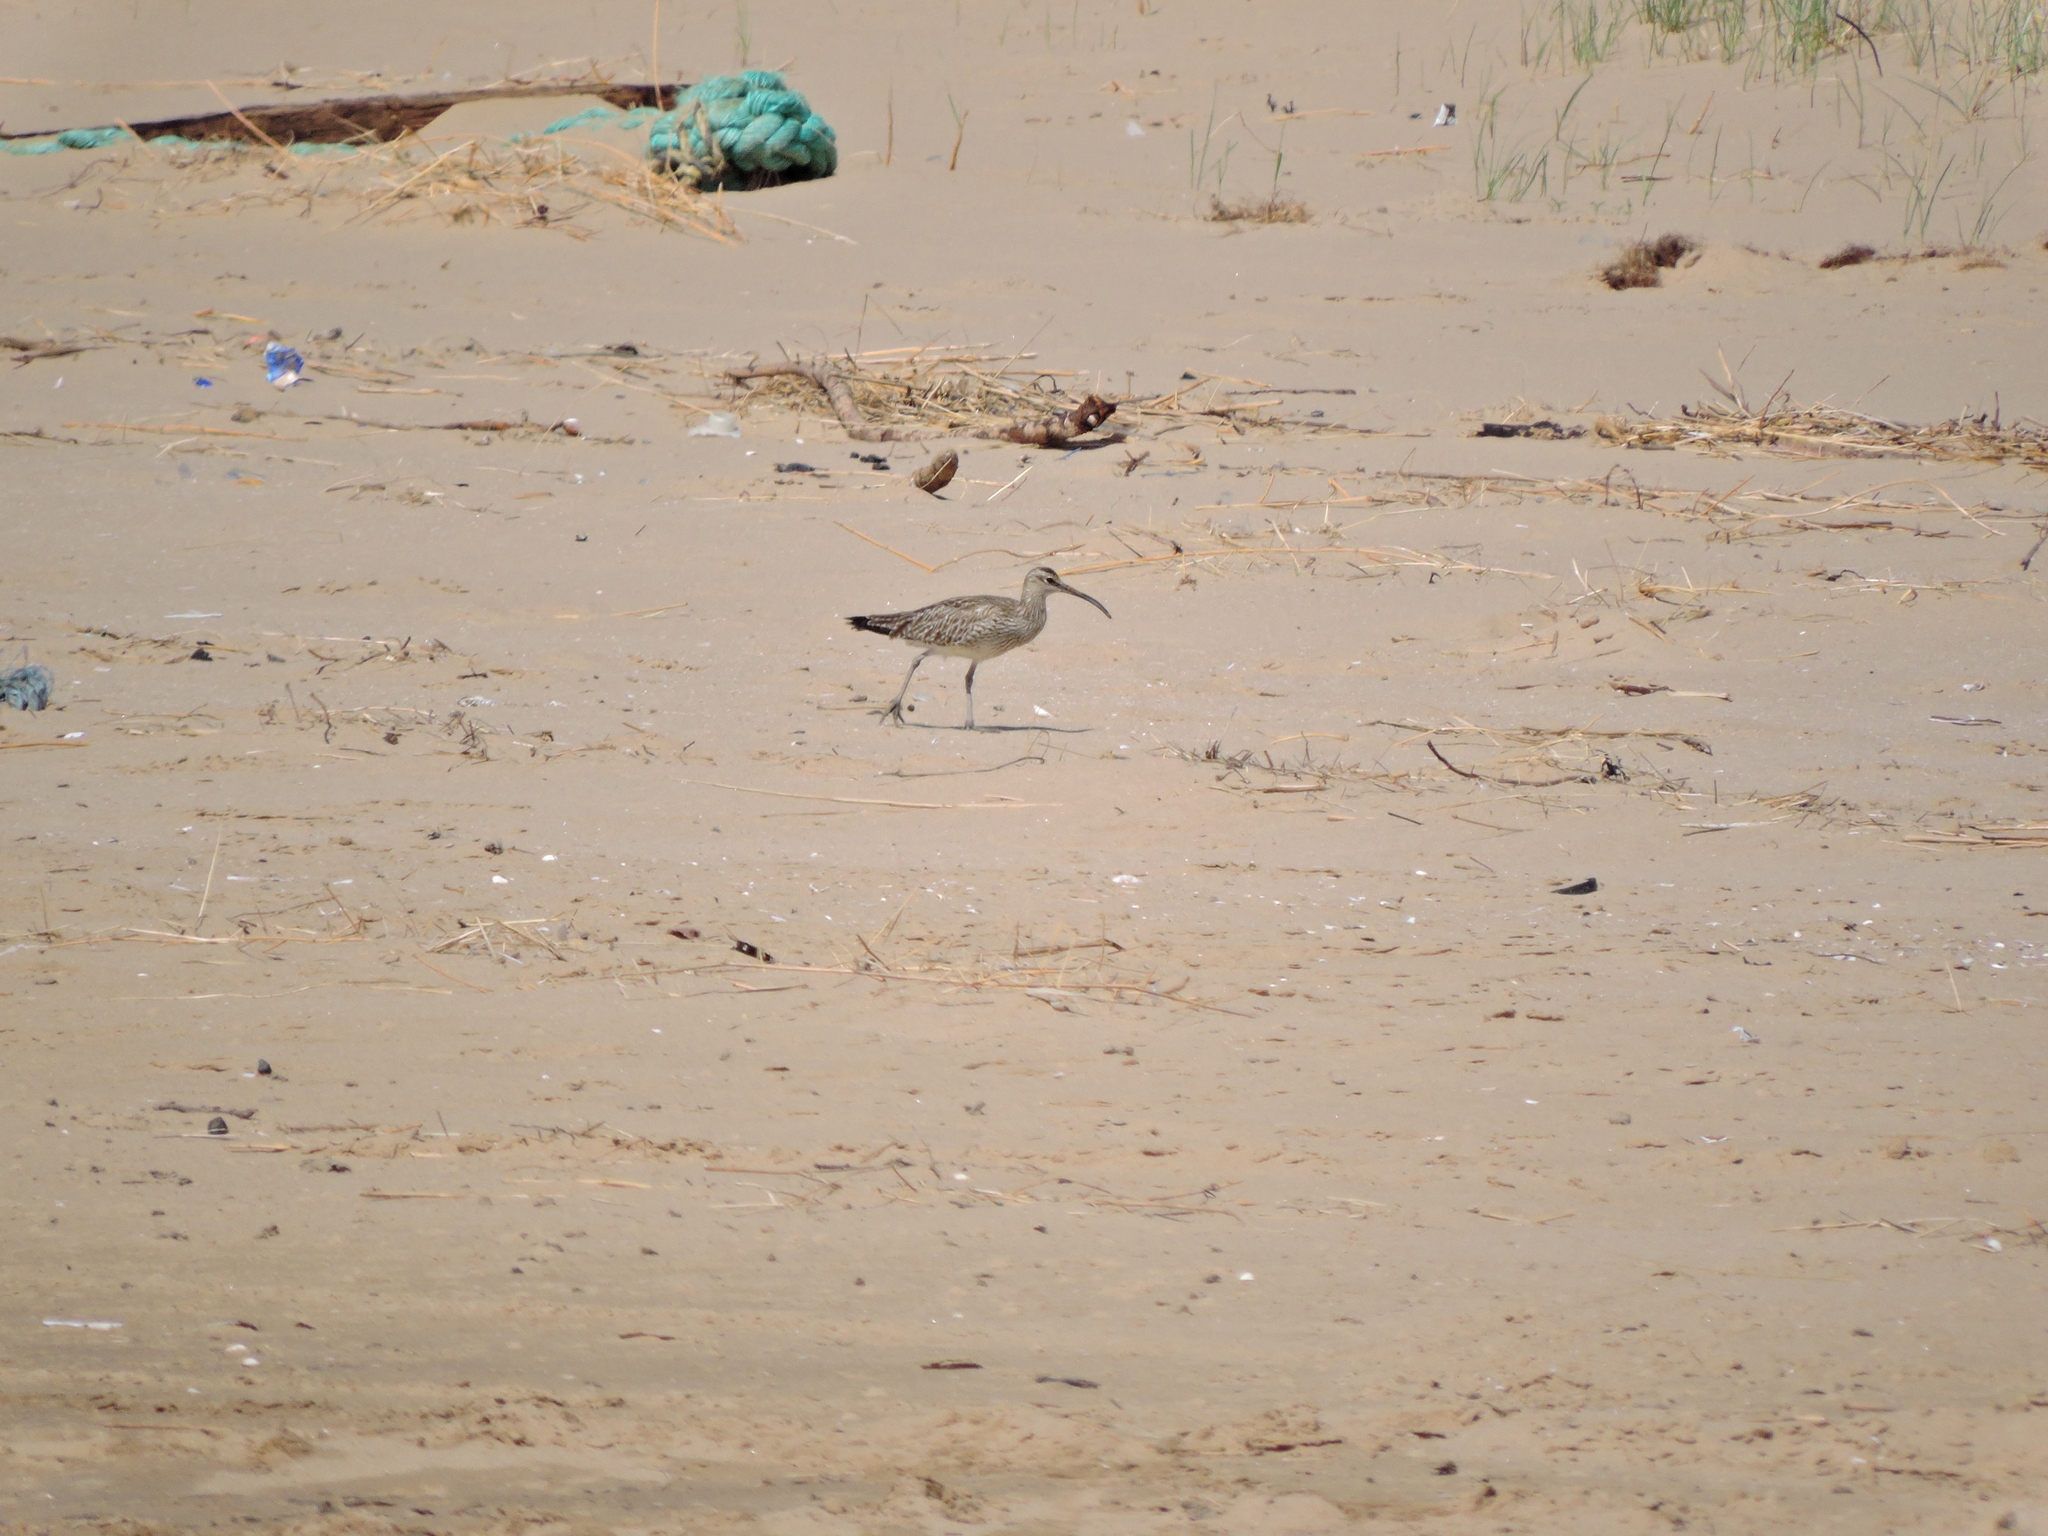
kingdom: Animalia
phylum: Chordata
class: Aves
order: Charadriiformes
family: Scolopacidae
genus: Numenius
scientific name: Numenius phaeopus
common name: Whimbrel
